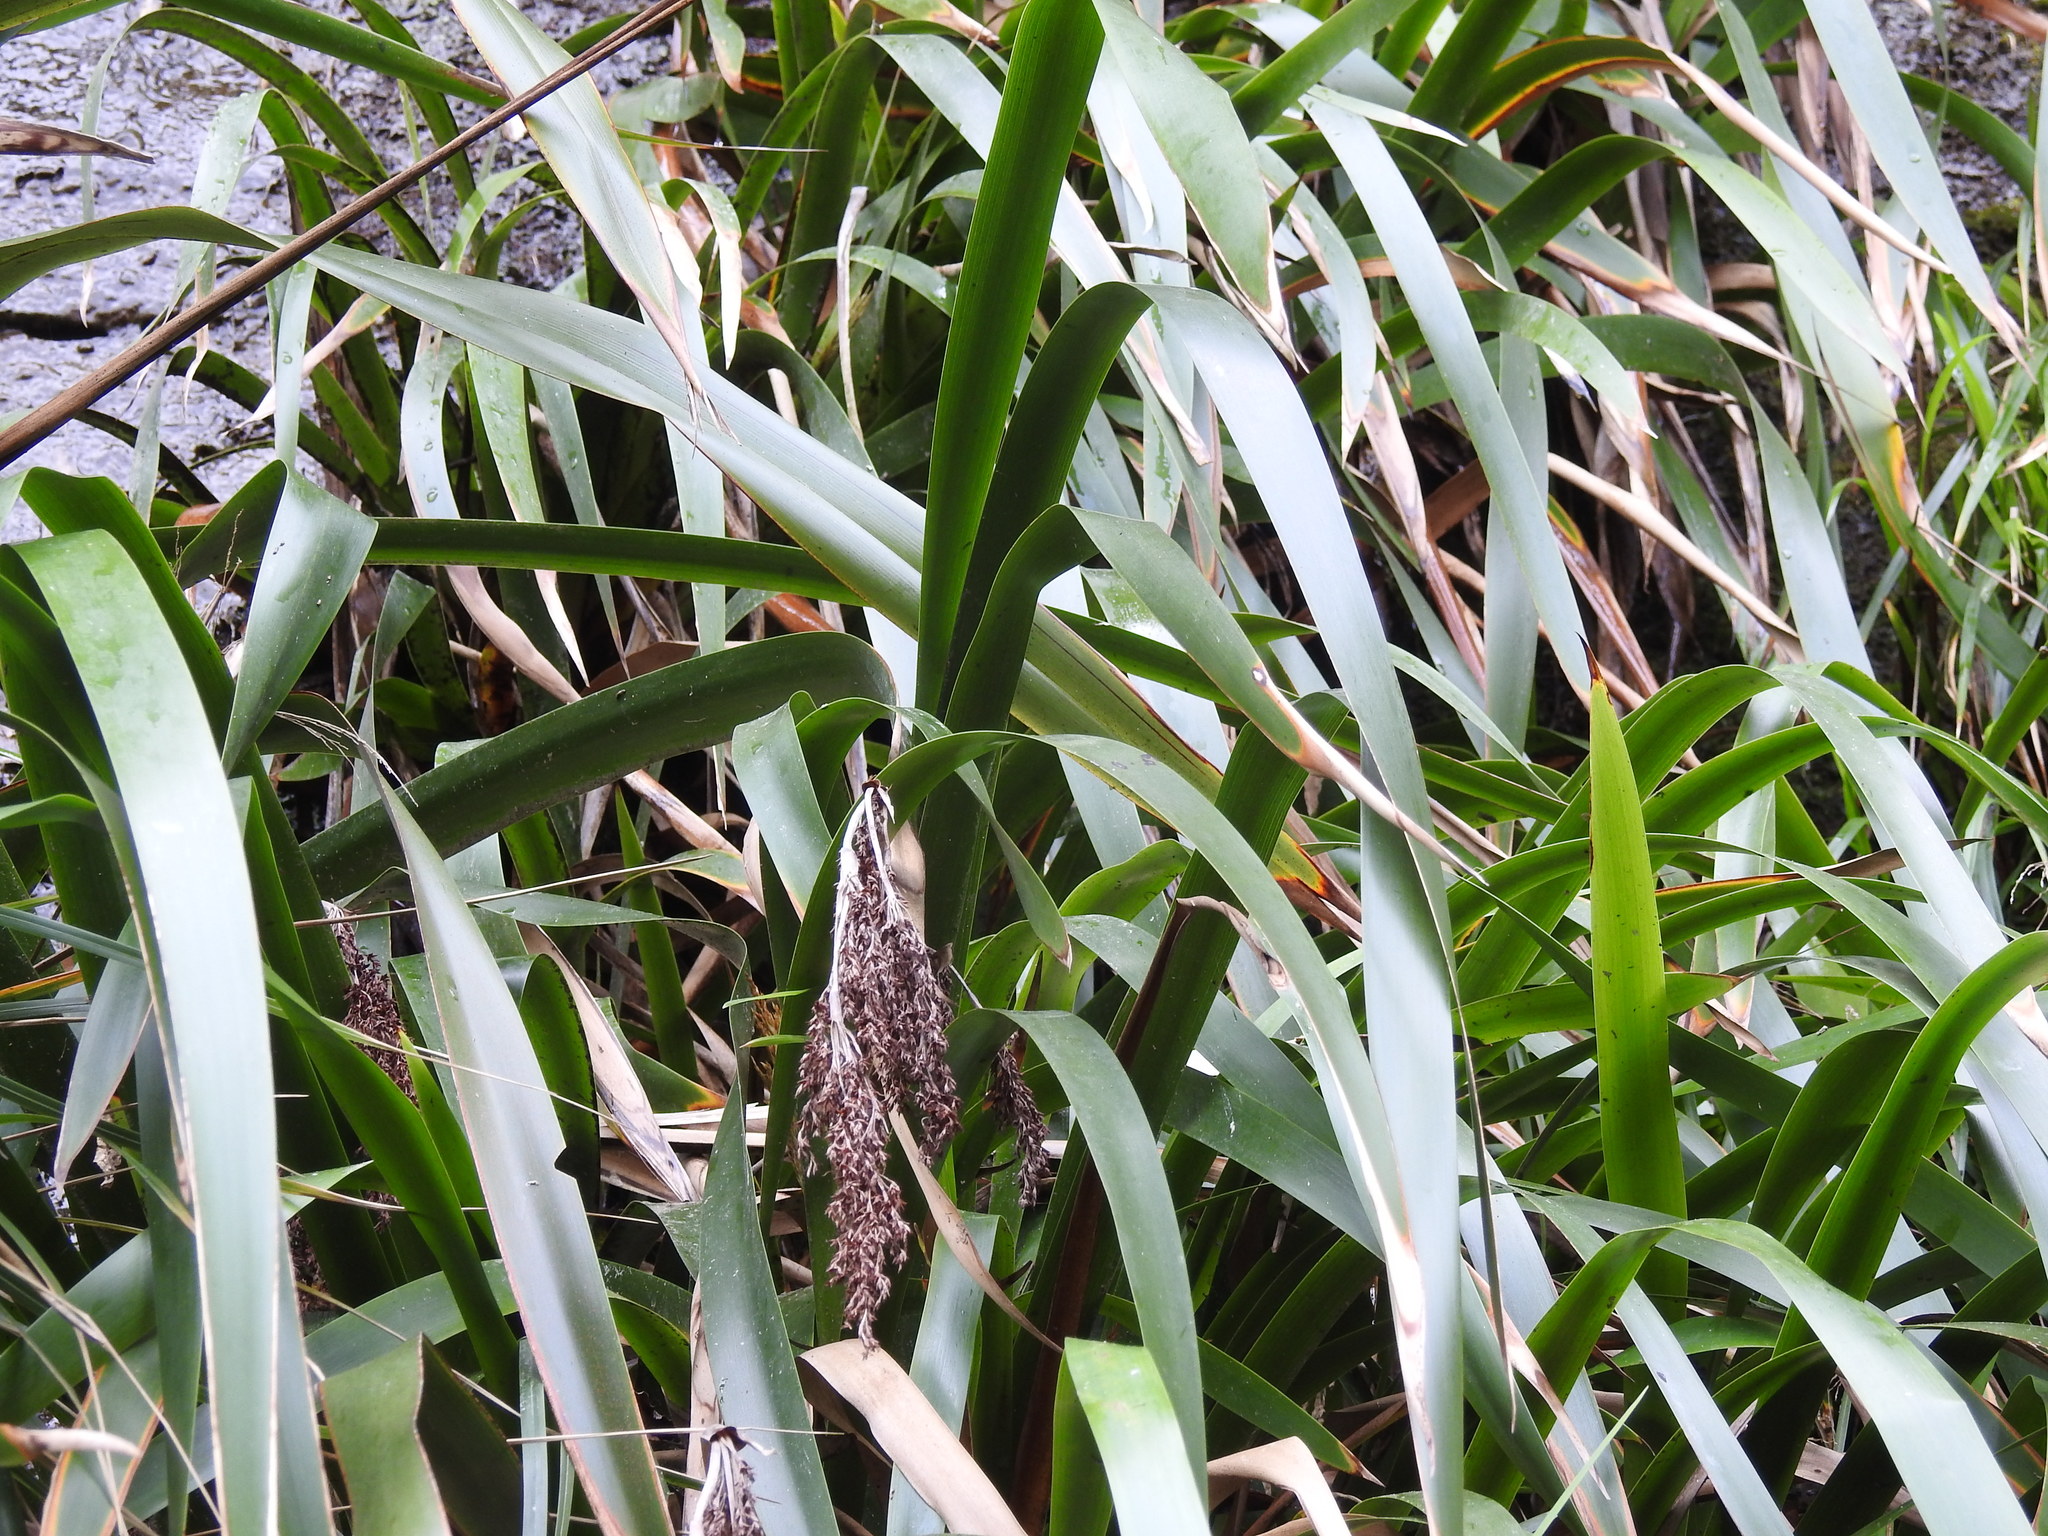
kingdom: Plantae
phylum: Tracheophyta
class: Liliopsida
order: Poales
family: Cyperaceae
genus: Machaerina
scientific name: Machaerina sinclairii
